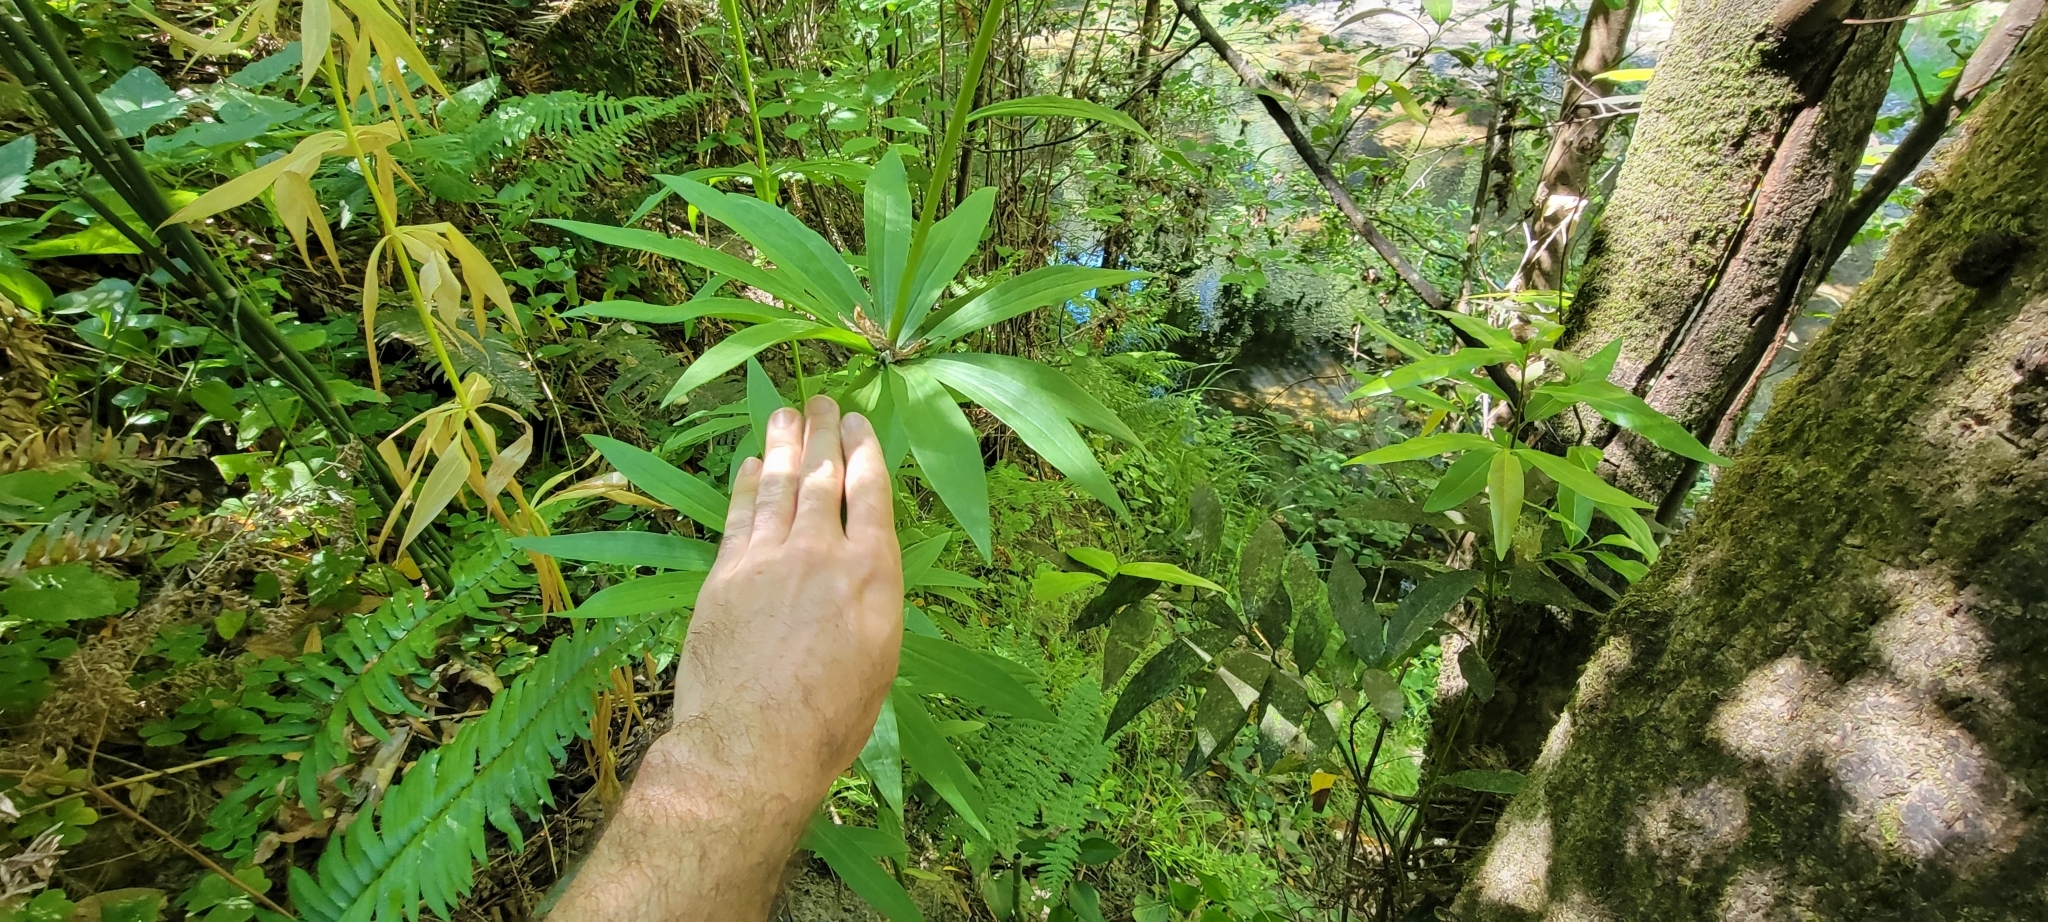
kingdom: Plantae
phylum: Tracheophyta
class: Liliopsida
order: Liliales
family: Liliaceae
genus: Lilium
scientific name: Lilium pardalinum
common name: Panther lily
